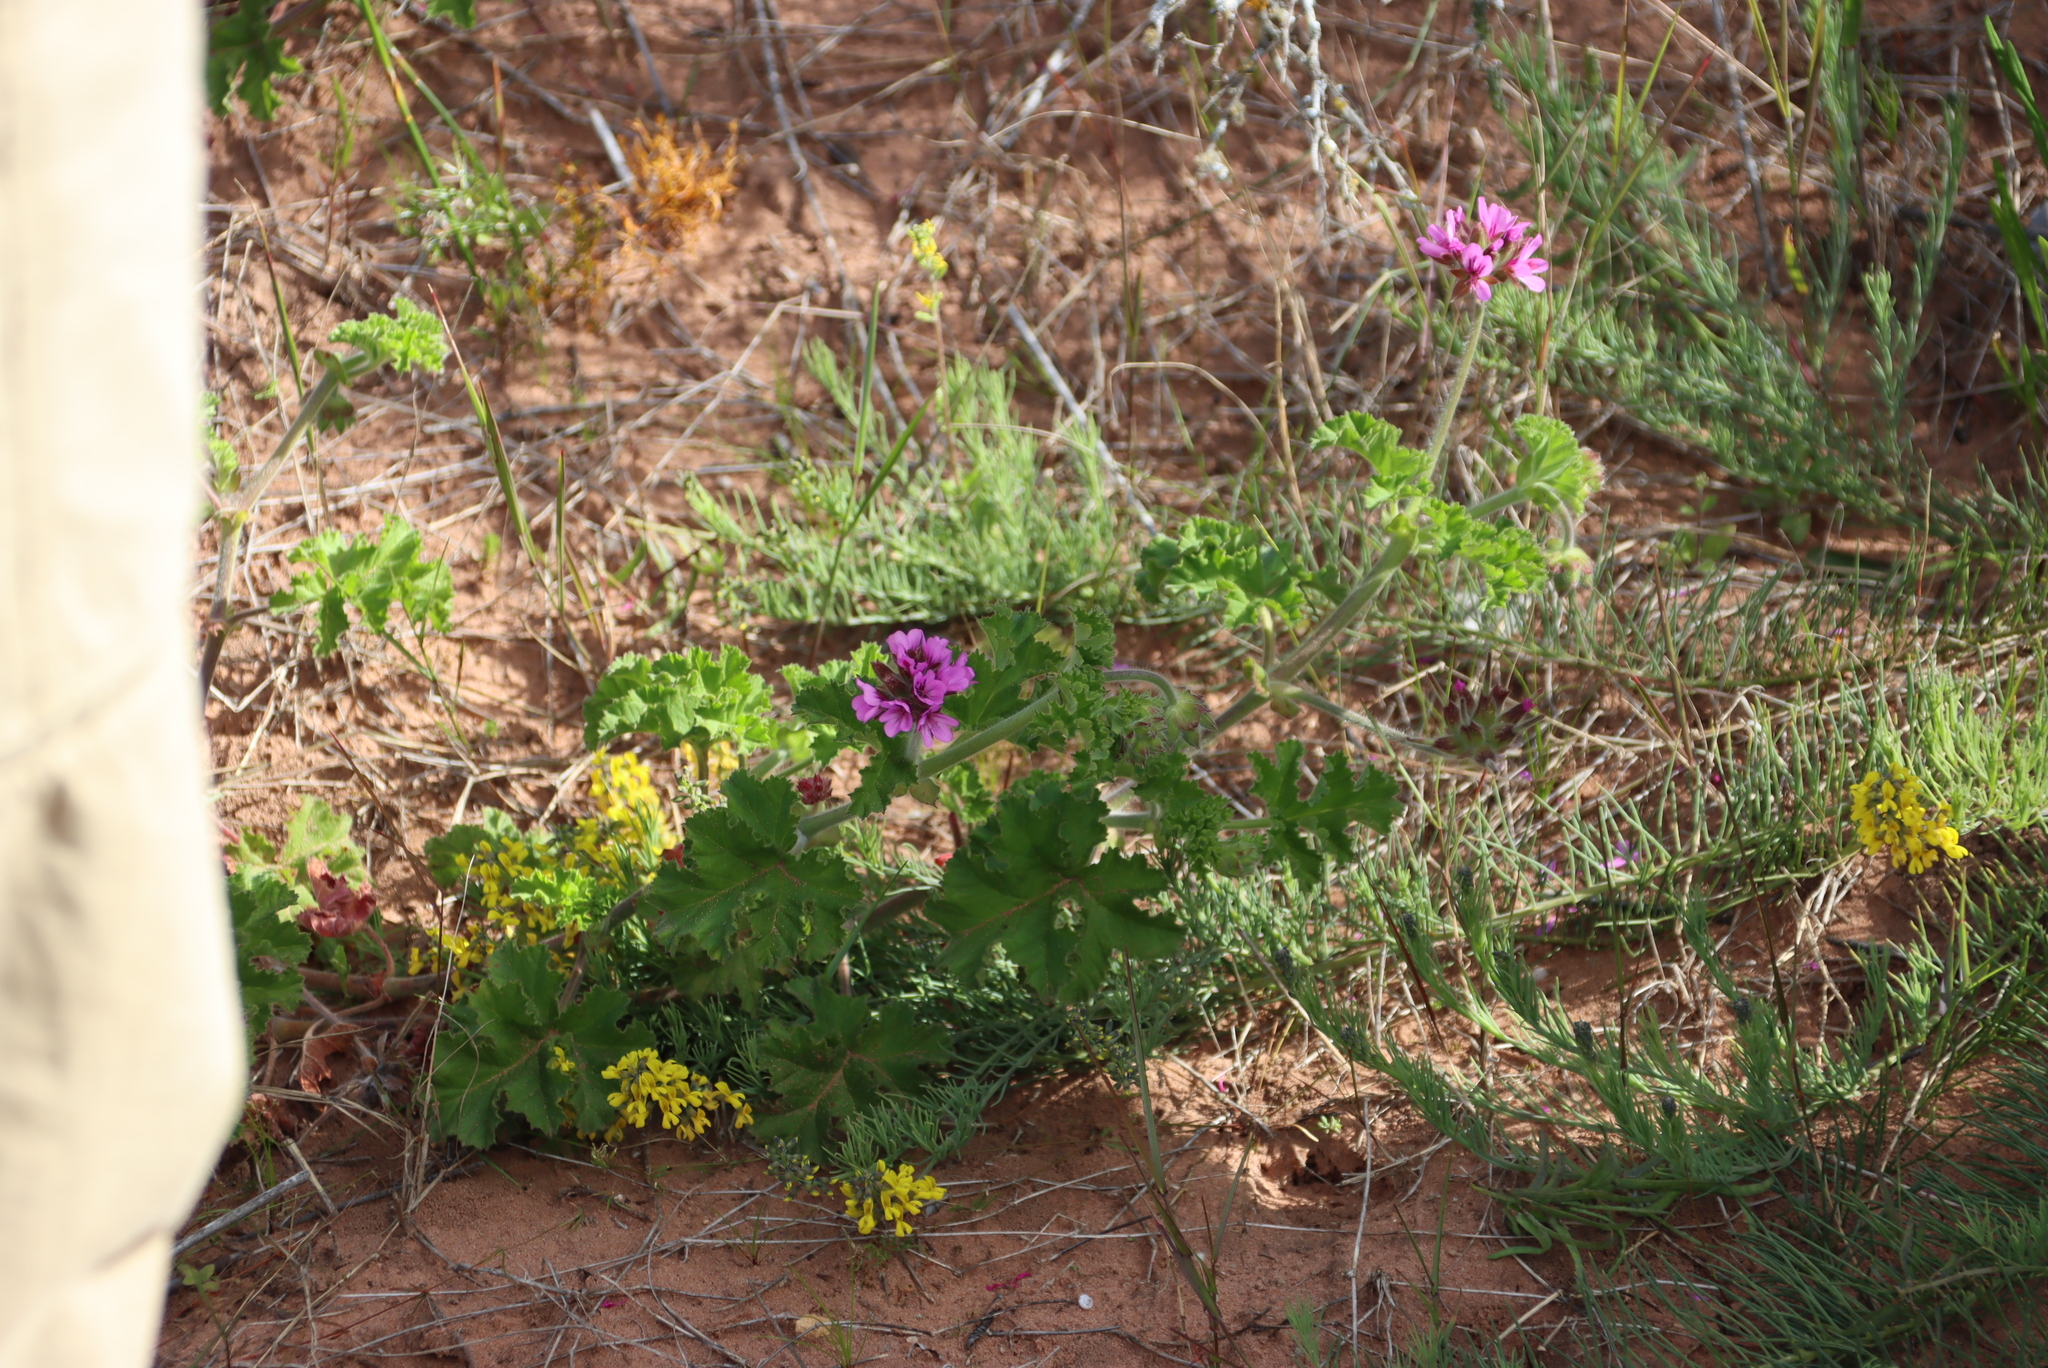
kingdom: Plantae
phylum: Tracheophyta
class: Magnoliopsida
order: Geraniales
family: Geraniaceae
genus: Pelargonium
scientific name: Pelargonium capitatum
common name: Rose scented geranium
